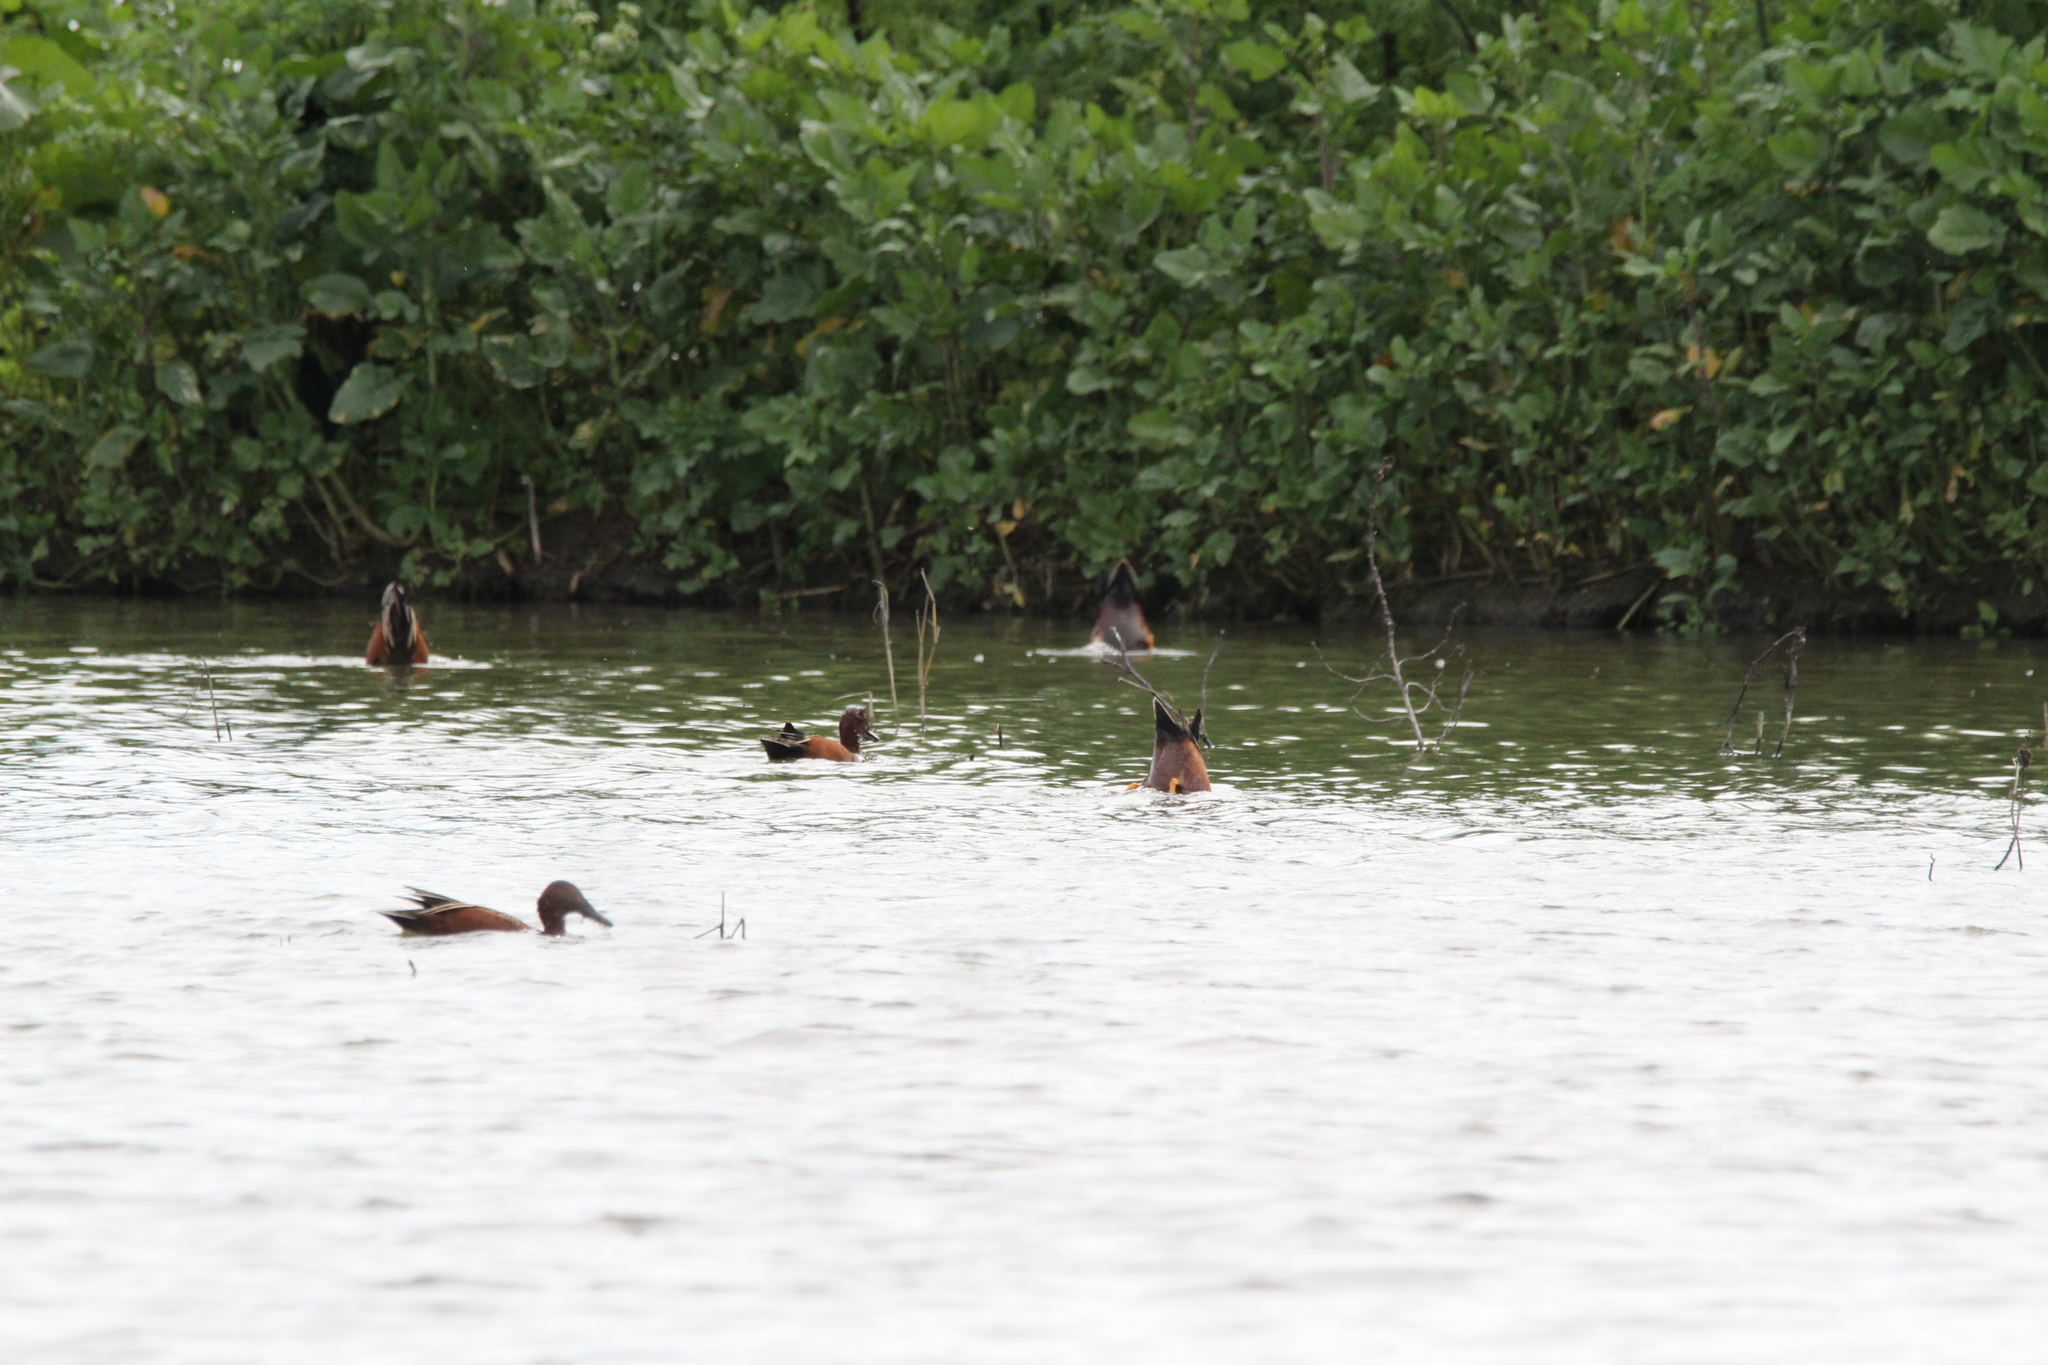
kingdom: Animalia
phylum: Chordata
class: Aves
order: Anseriformes
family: Anatidae
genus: Spatula
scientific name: Spatula cyanoptera
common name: Cinnamon teal
